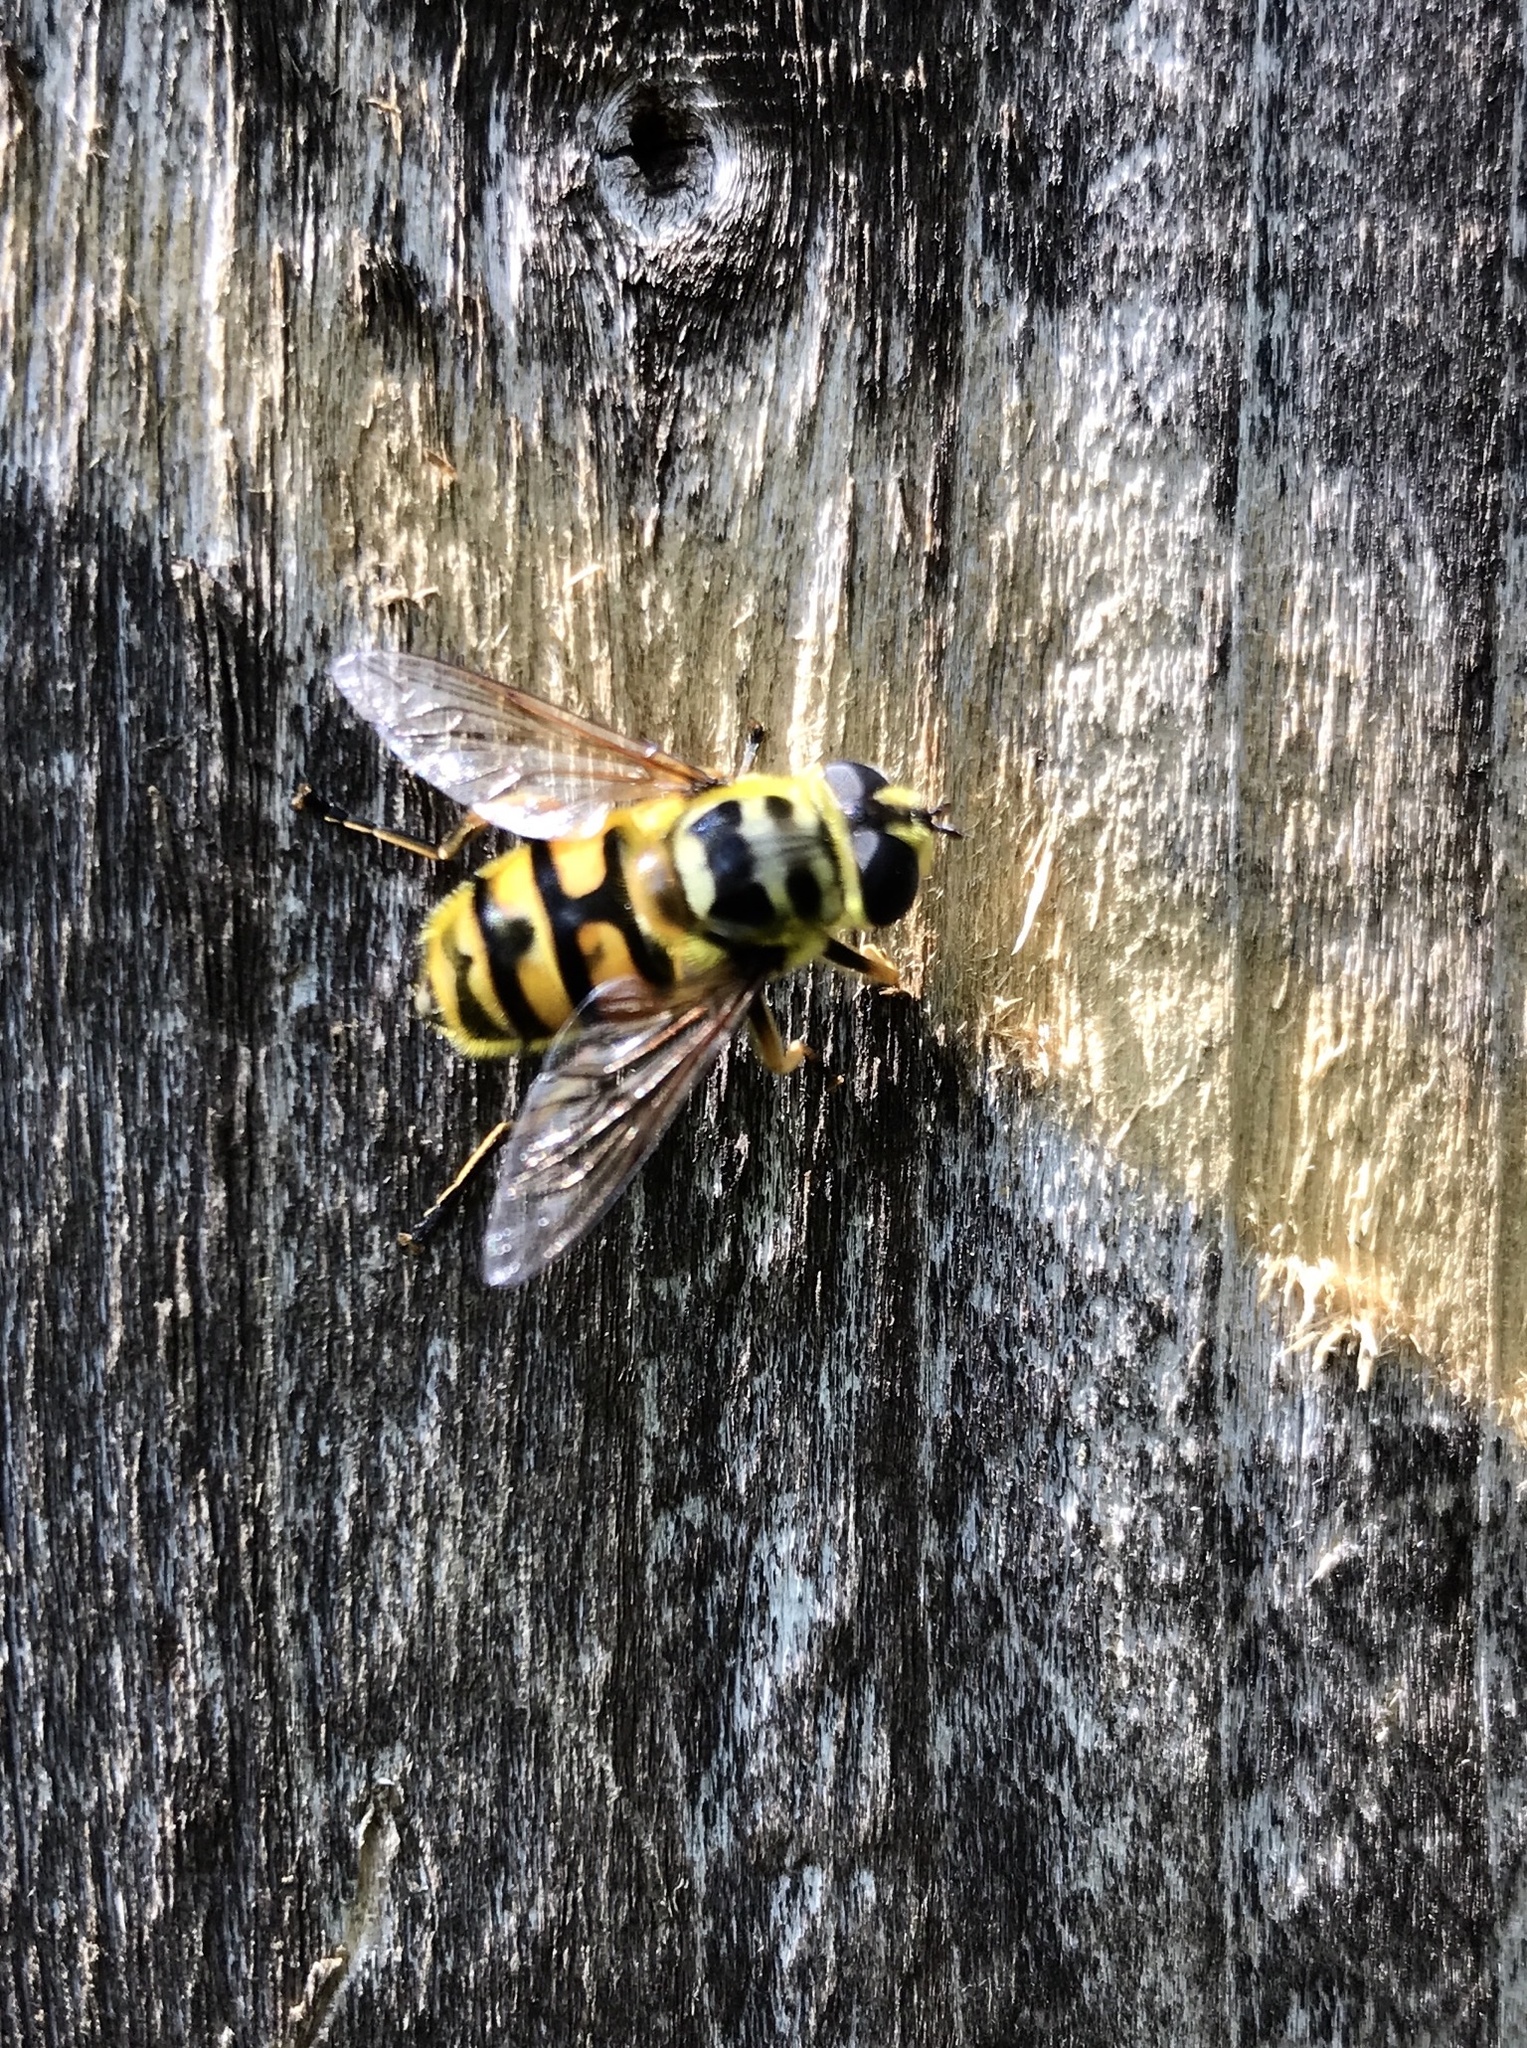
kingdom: Animalia
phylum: Arthropoda
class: Insecta
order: Diptera
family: Syrphidae
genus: Myathropa
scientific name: Myathropa florea
